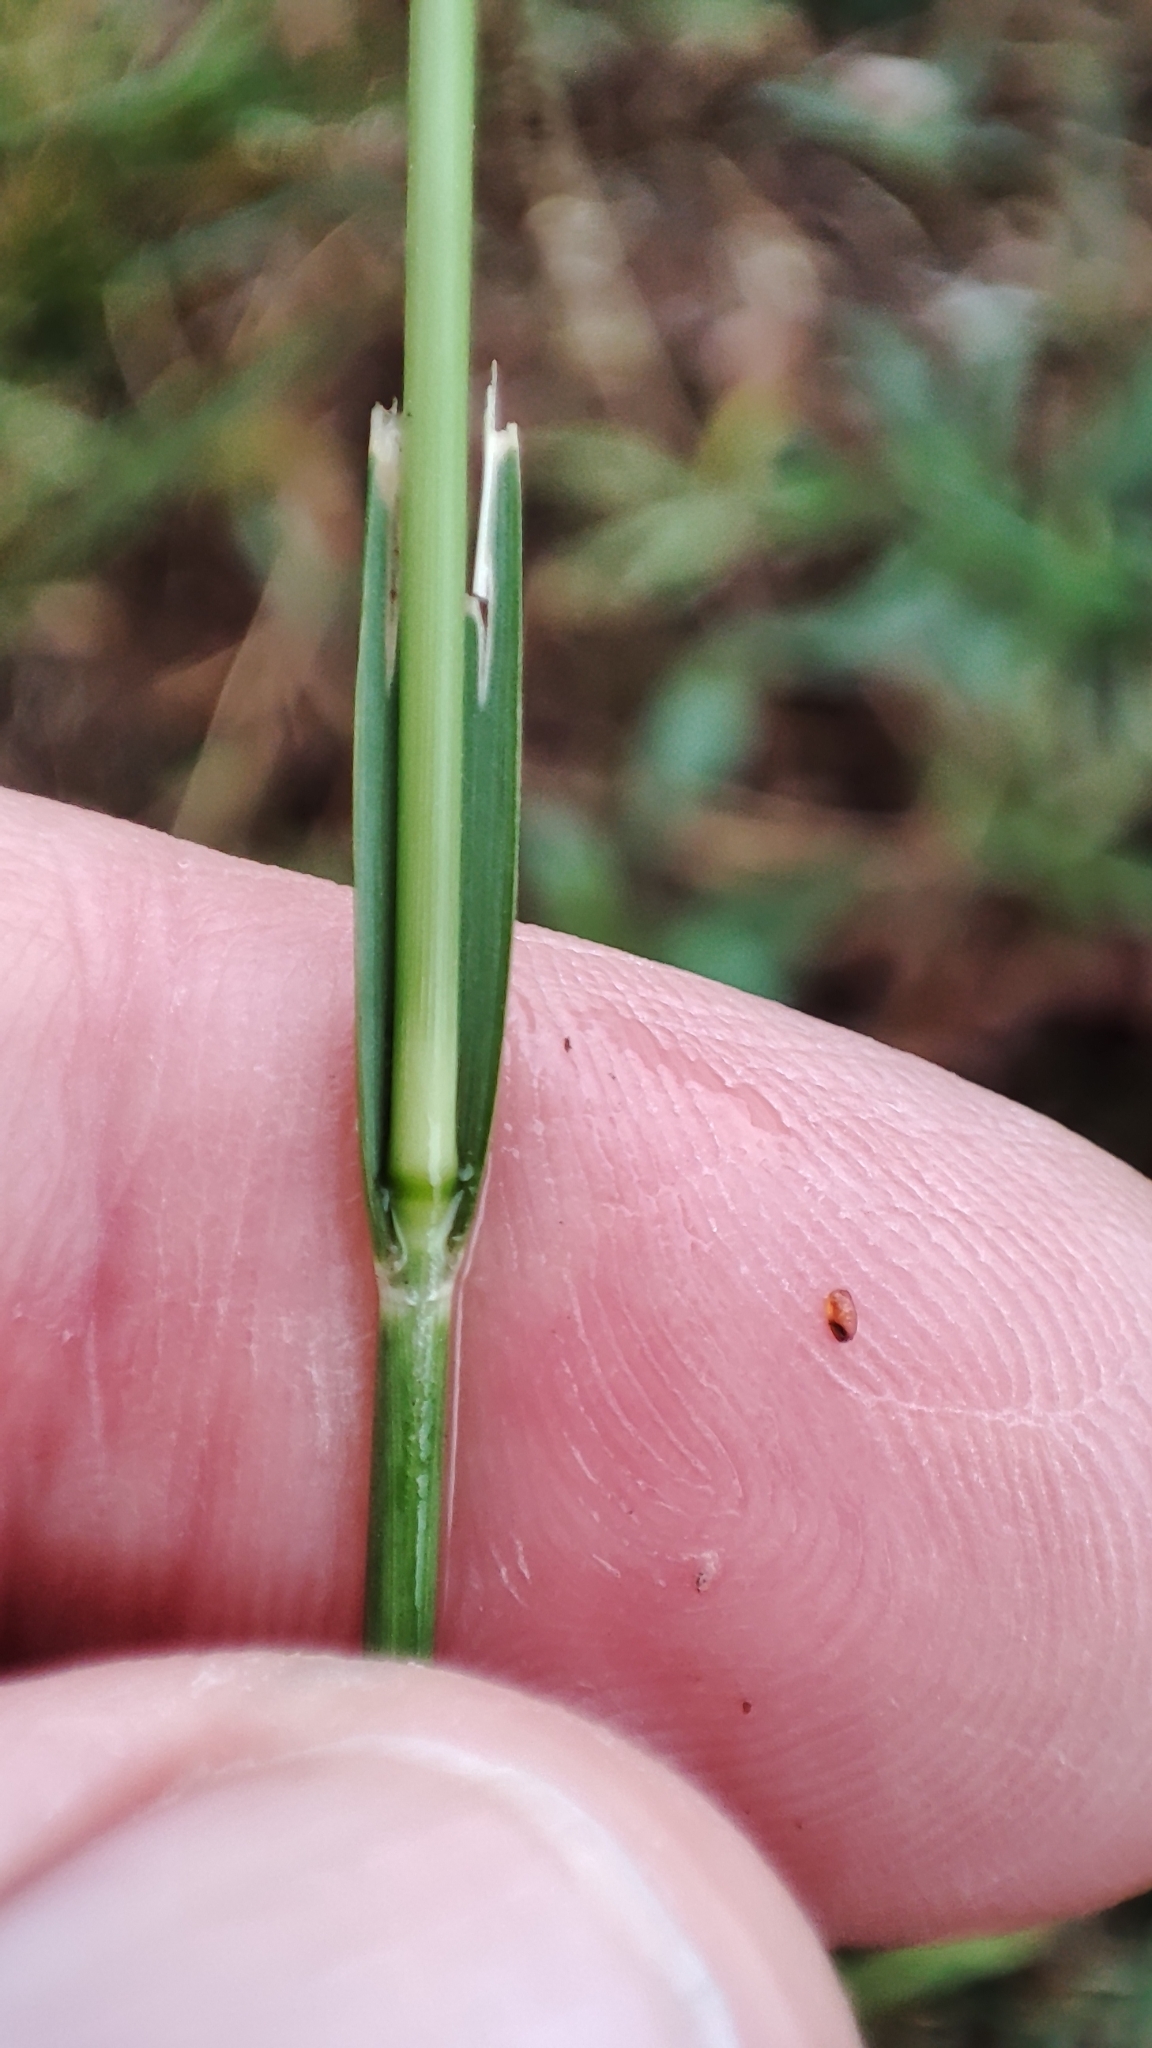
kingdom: Plantae
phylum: Tracheophyta
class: Liliopsida
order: Poales
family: Poaceae
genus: Sporobolus
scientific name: Sporobolus indicus
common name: Smut grass
